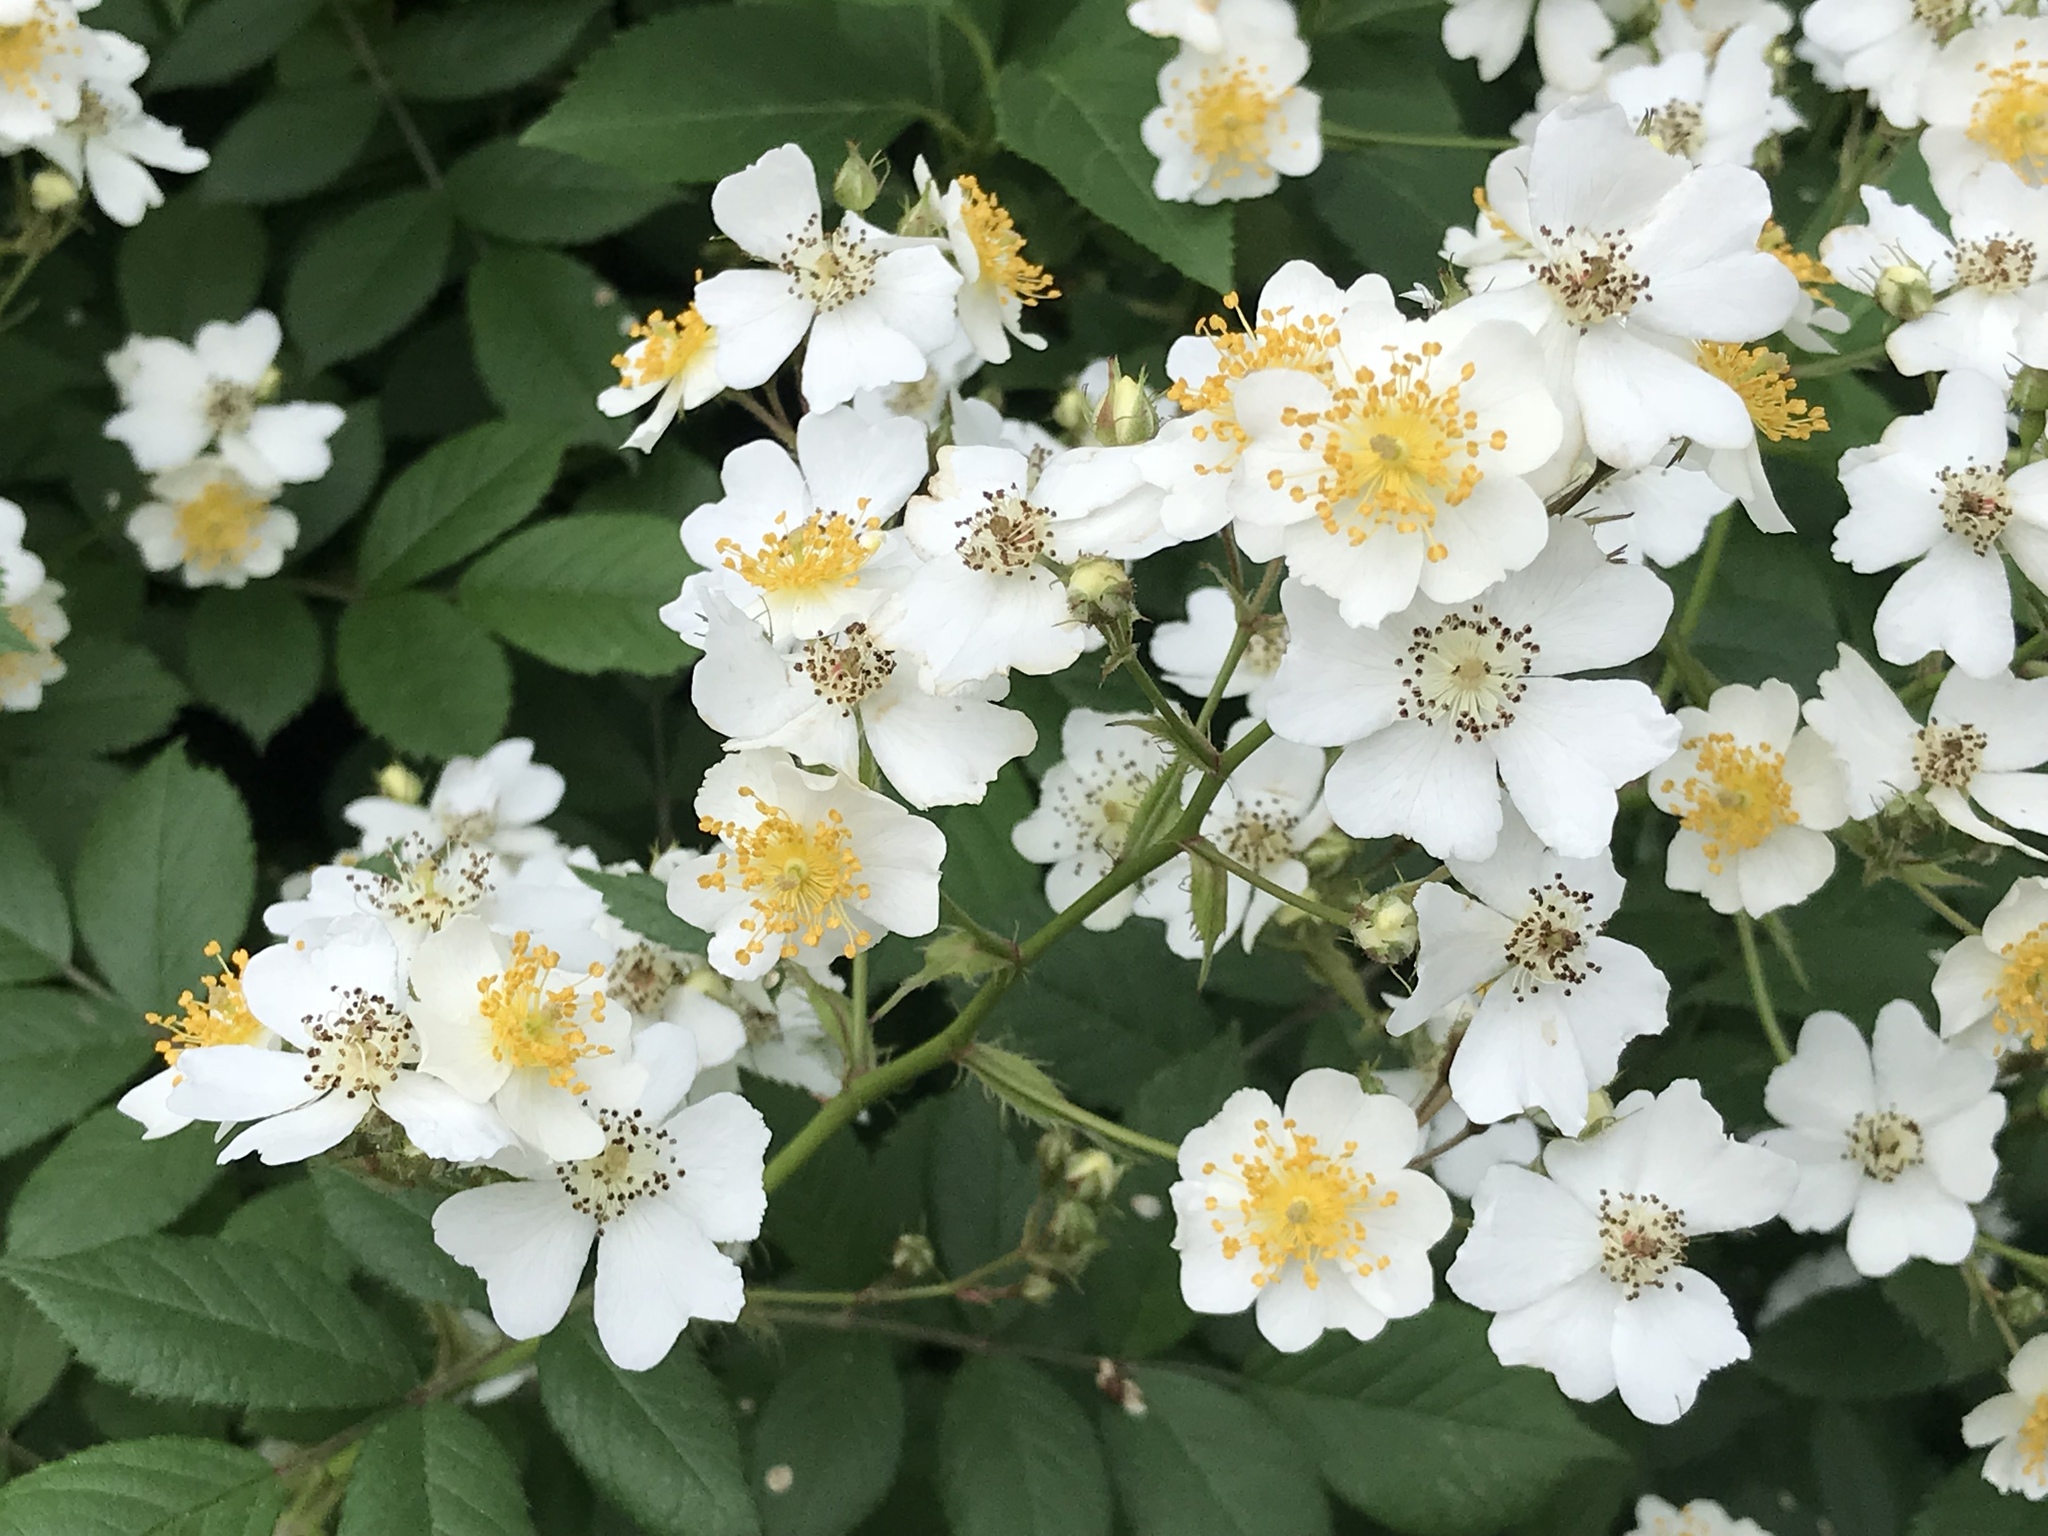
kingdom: Plantae
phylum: Tracheophyta
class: Magnoliopsida
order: Rosales
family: Rosaceae
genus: Rosa
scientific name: Rosa multiflora
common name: Multiflora rose
